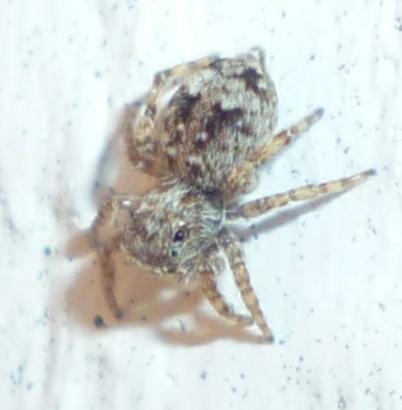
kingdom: Animalia
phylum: Arthropoda
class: Arachnida
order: Araneae
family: Salticidae
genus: Attulus
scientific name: Attulus fasciger
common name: Asiatic wall jumping spider
